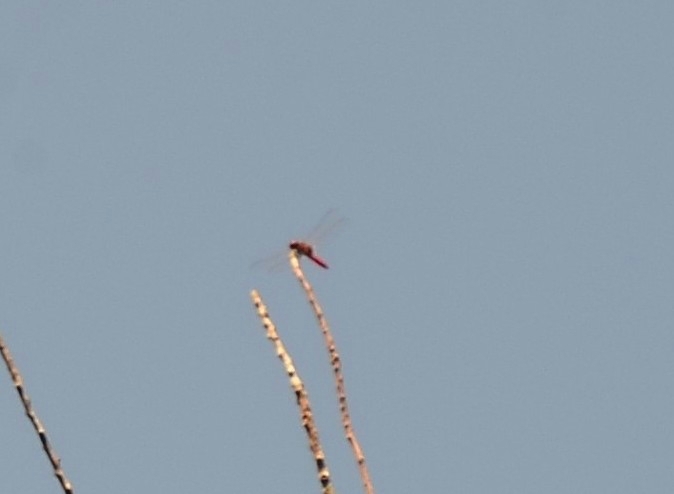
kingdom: Animalia
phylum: Arthropoda
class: Insecta
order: Odonata
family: Libellulidae
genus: Urothemis
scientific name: Urothemis signata
